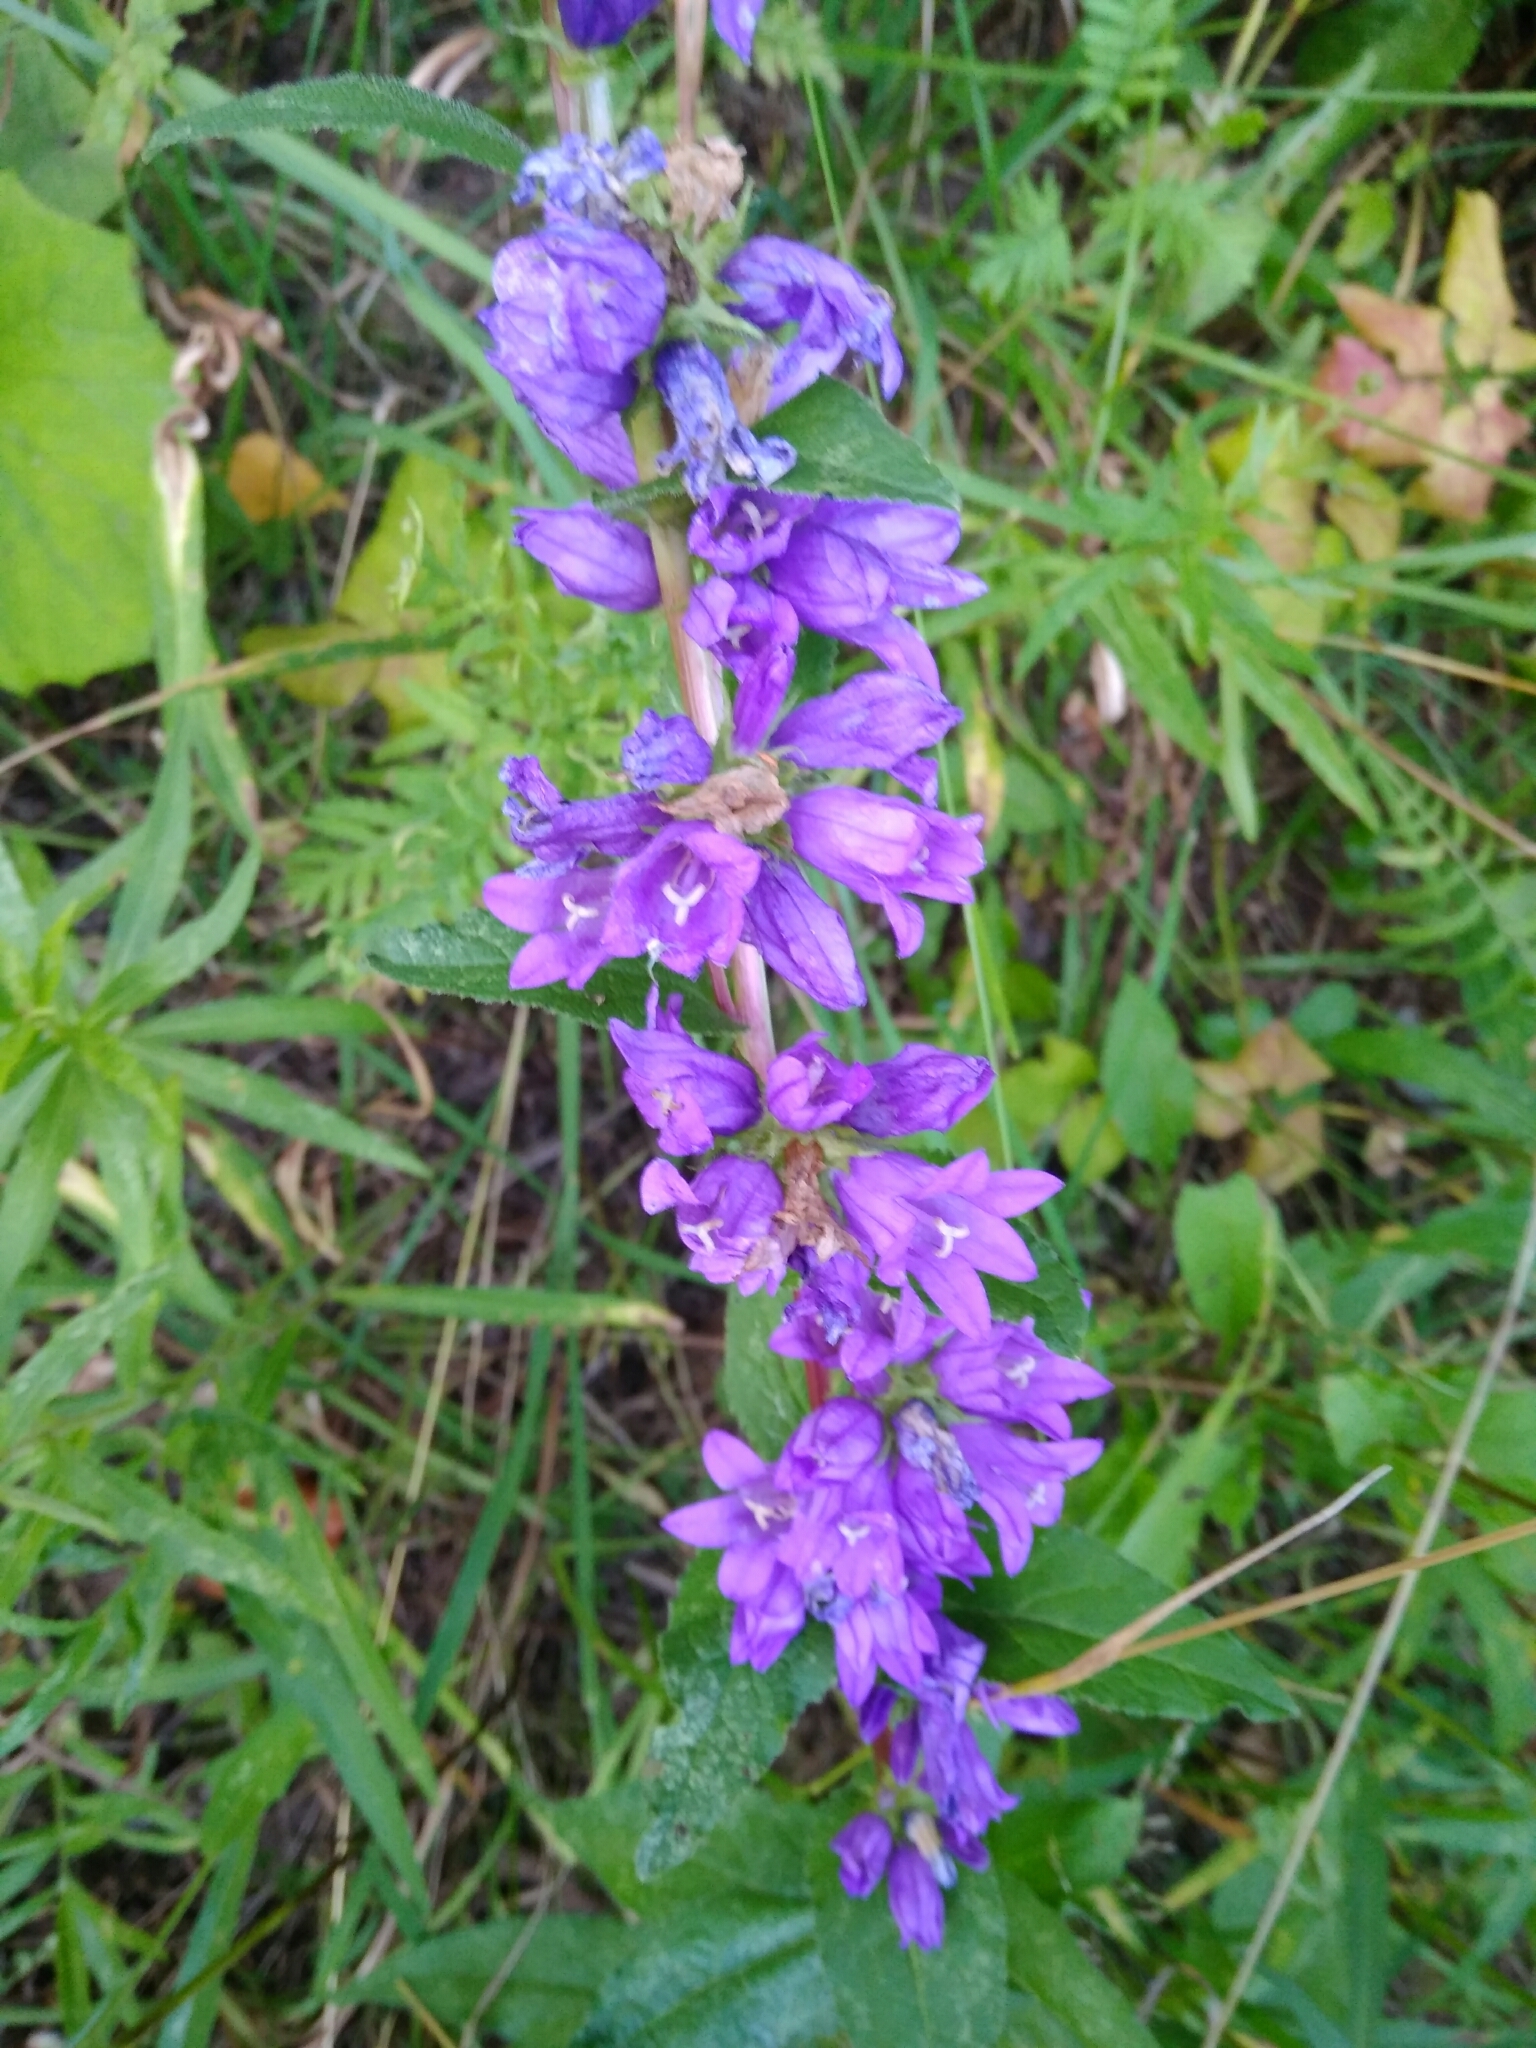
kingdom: Plantae
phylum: Tracheophyta
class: Magnoliopsida
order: Asterales
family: Campanulaceae
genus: Campanula
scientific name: Campanula glomerata
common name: Clustered bellflower
